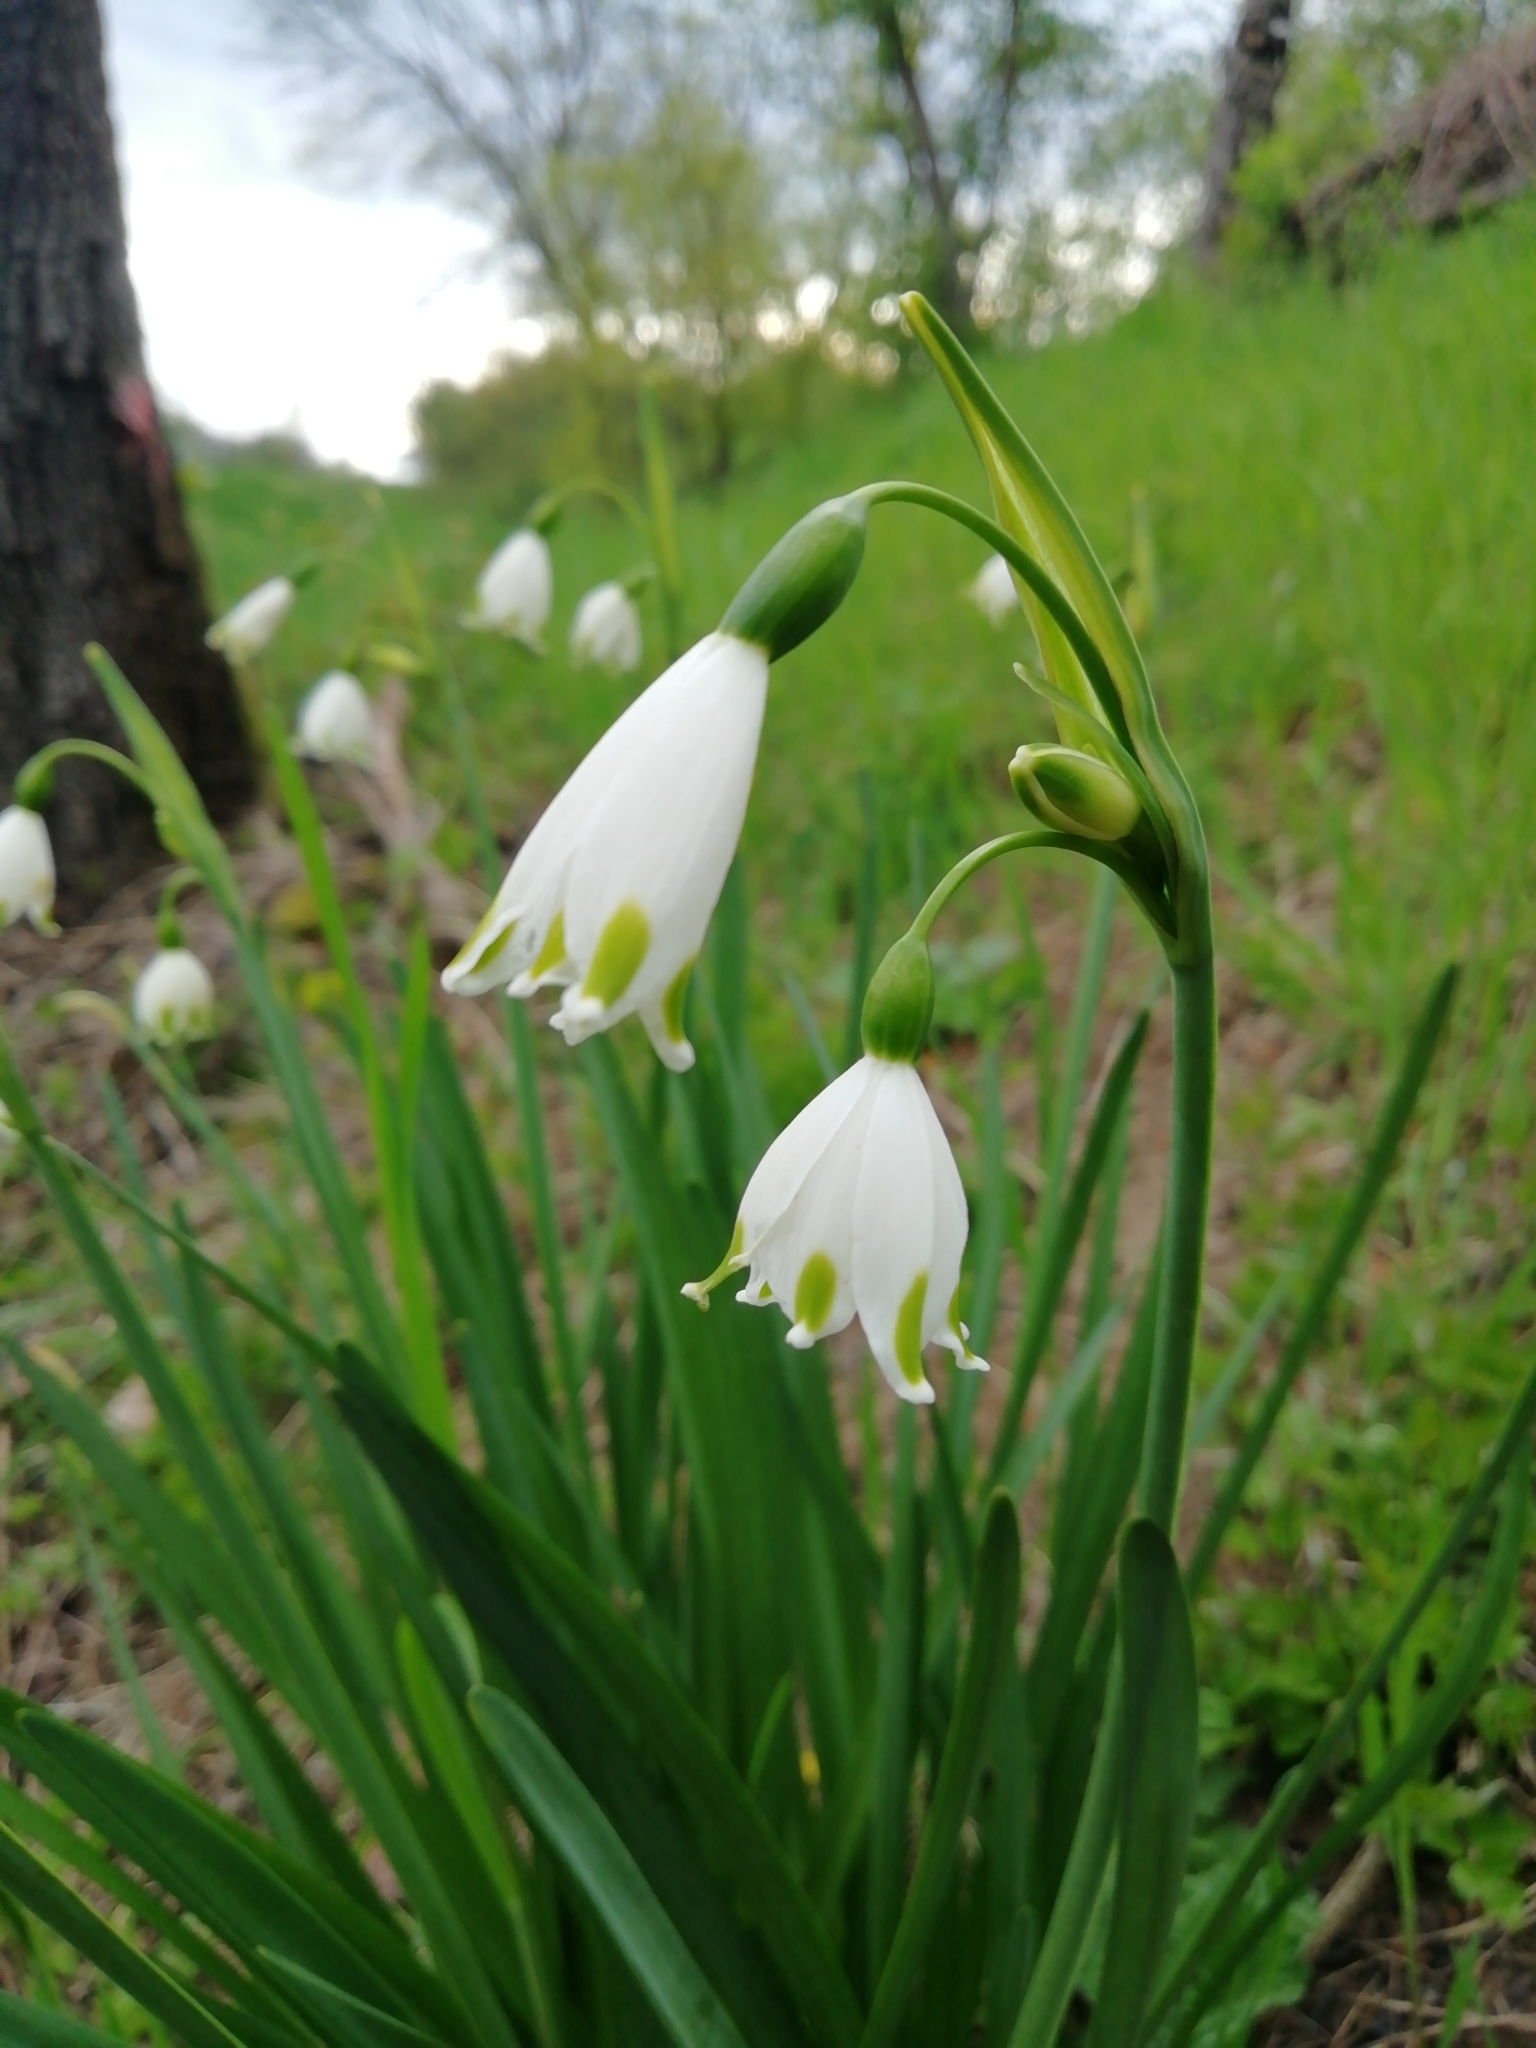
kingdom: Plantae
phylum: Tracheophyta
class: Liliopsida
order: Asparagales
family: Amaryllidaceae
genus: Leucojum
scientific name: Leucojum aestivum
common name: Summer snowflake
